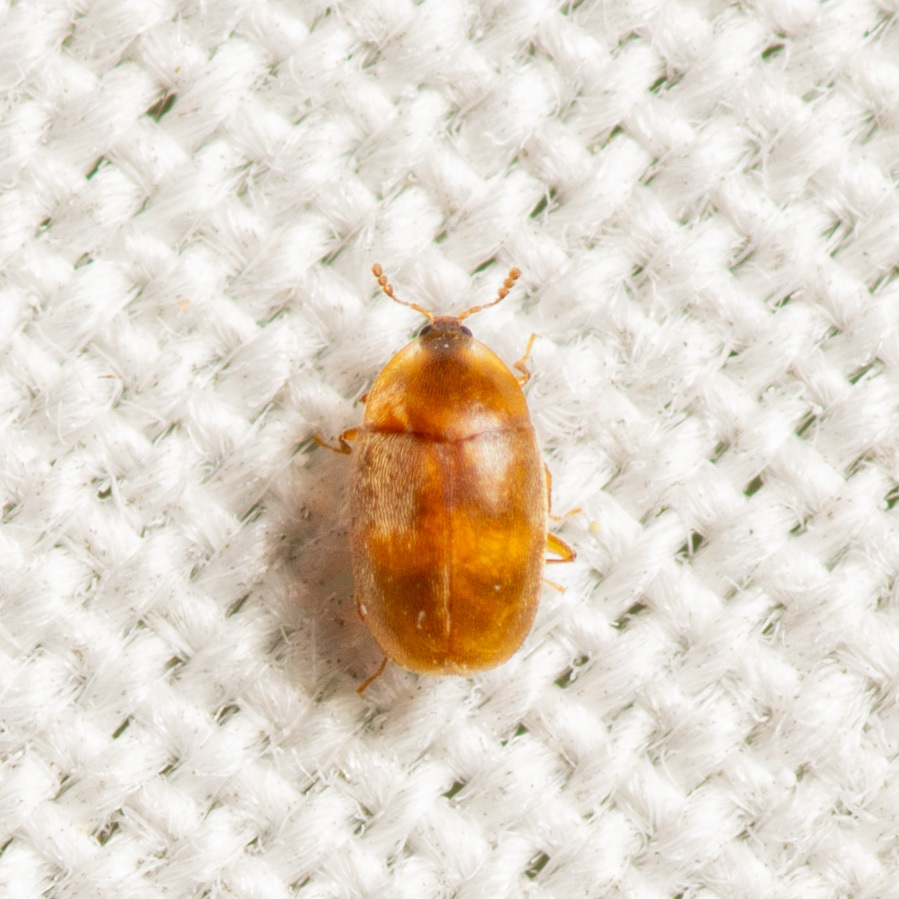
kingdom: Animalia
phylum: Arthropoda
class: Insecta
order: Coleoptera
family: Corylophidae
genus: Clypastraea
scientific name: Clypastraea lepida
